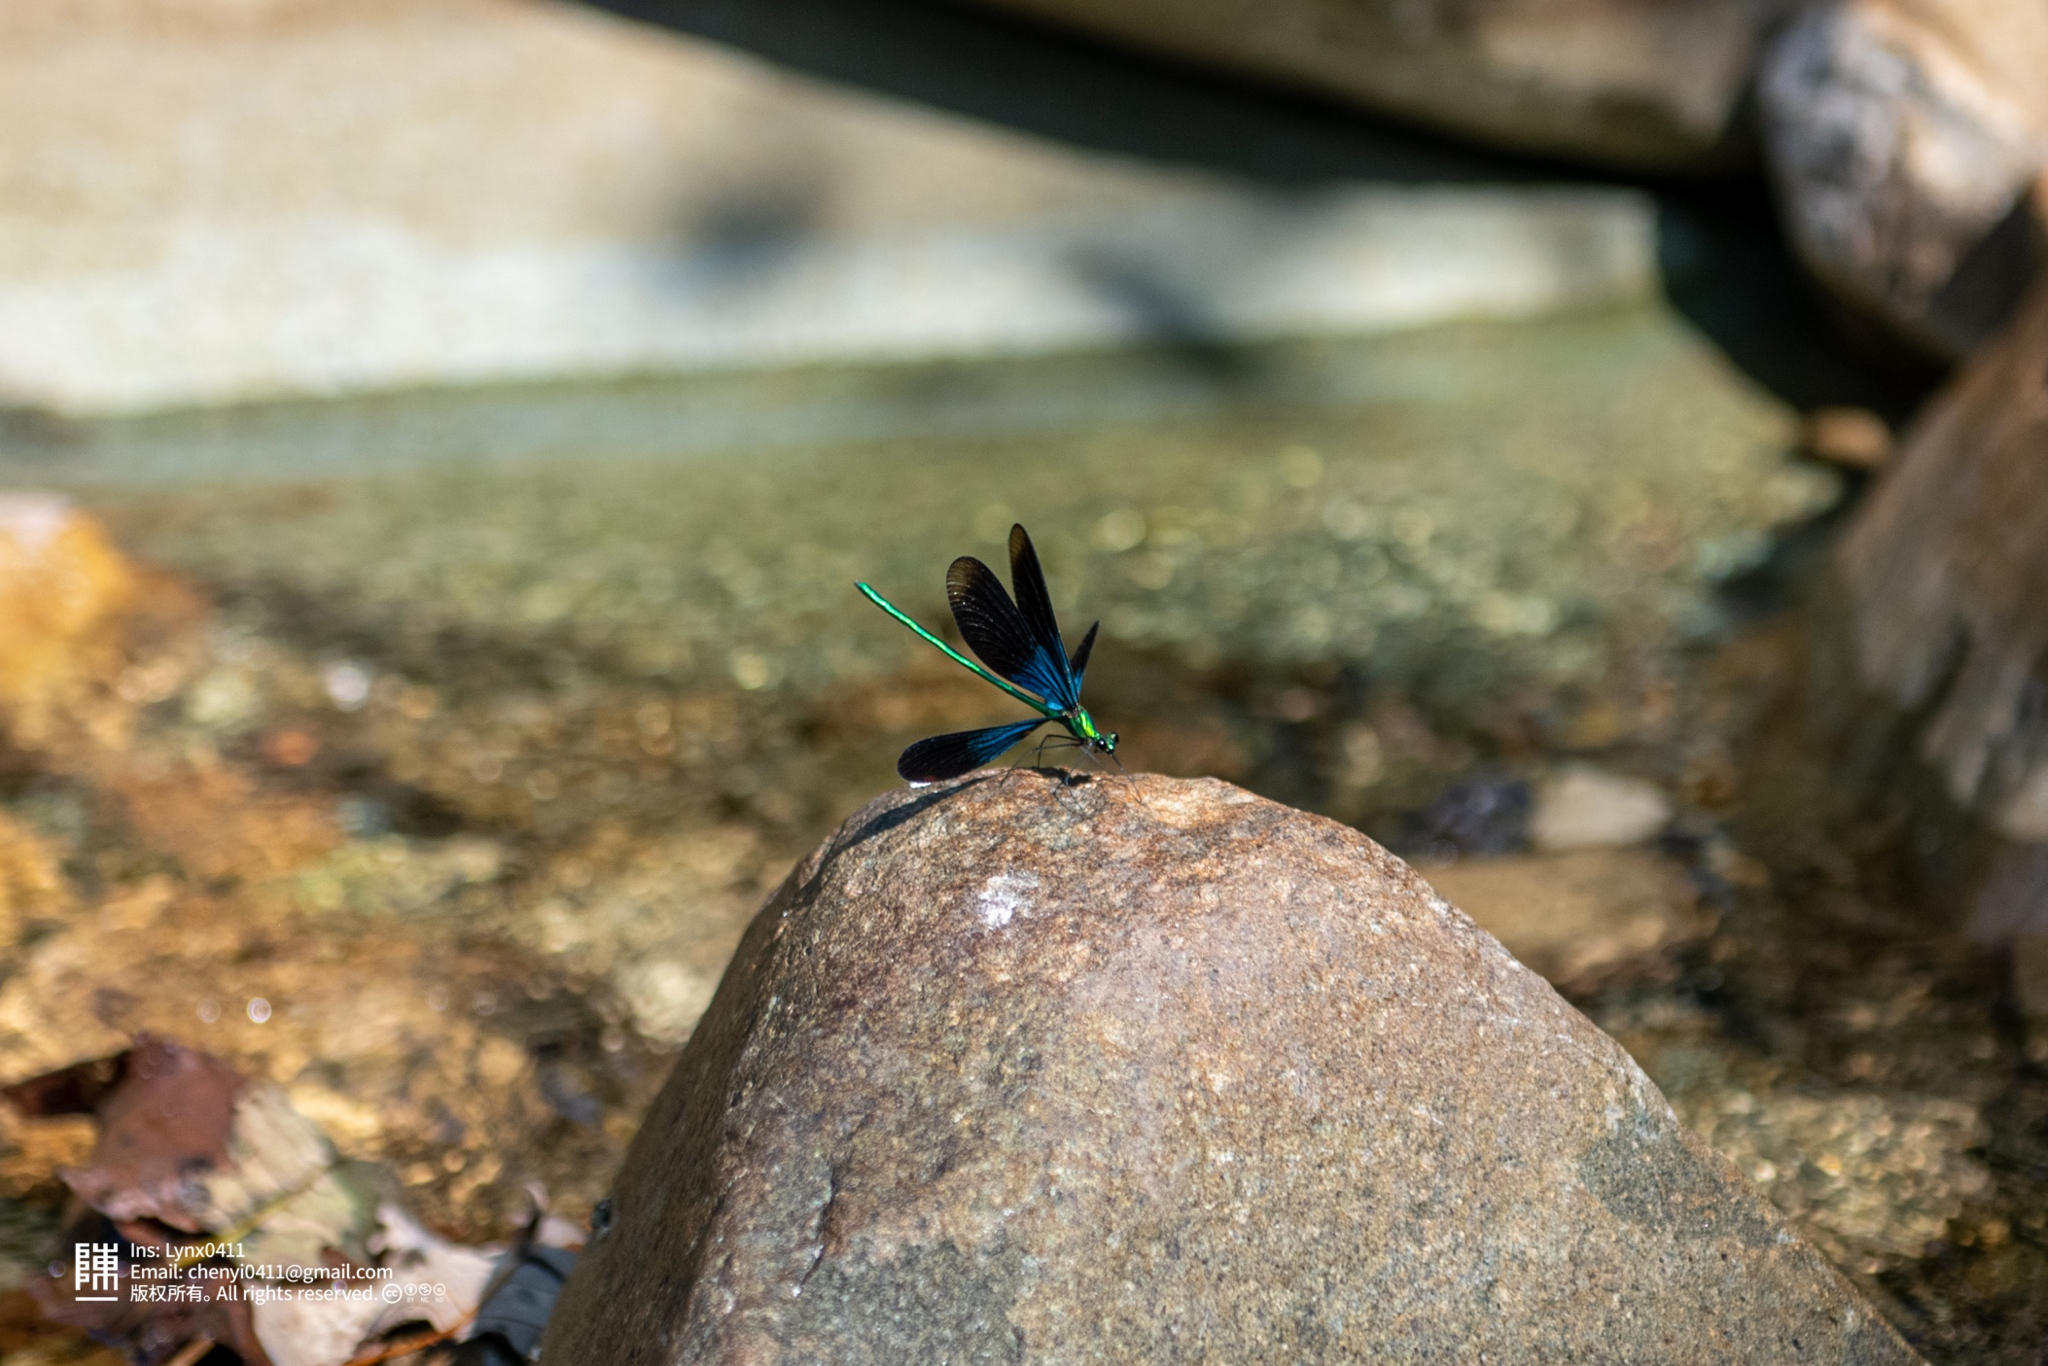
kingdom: Animalia
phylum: Arthropoda
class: Insecta
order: Odonata
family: Calopterygidae
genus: Matrona
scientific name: Matrona basilaris
